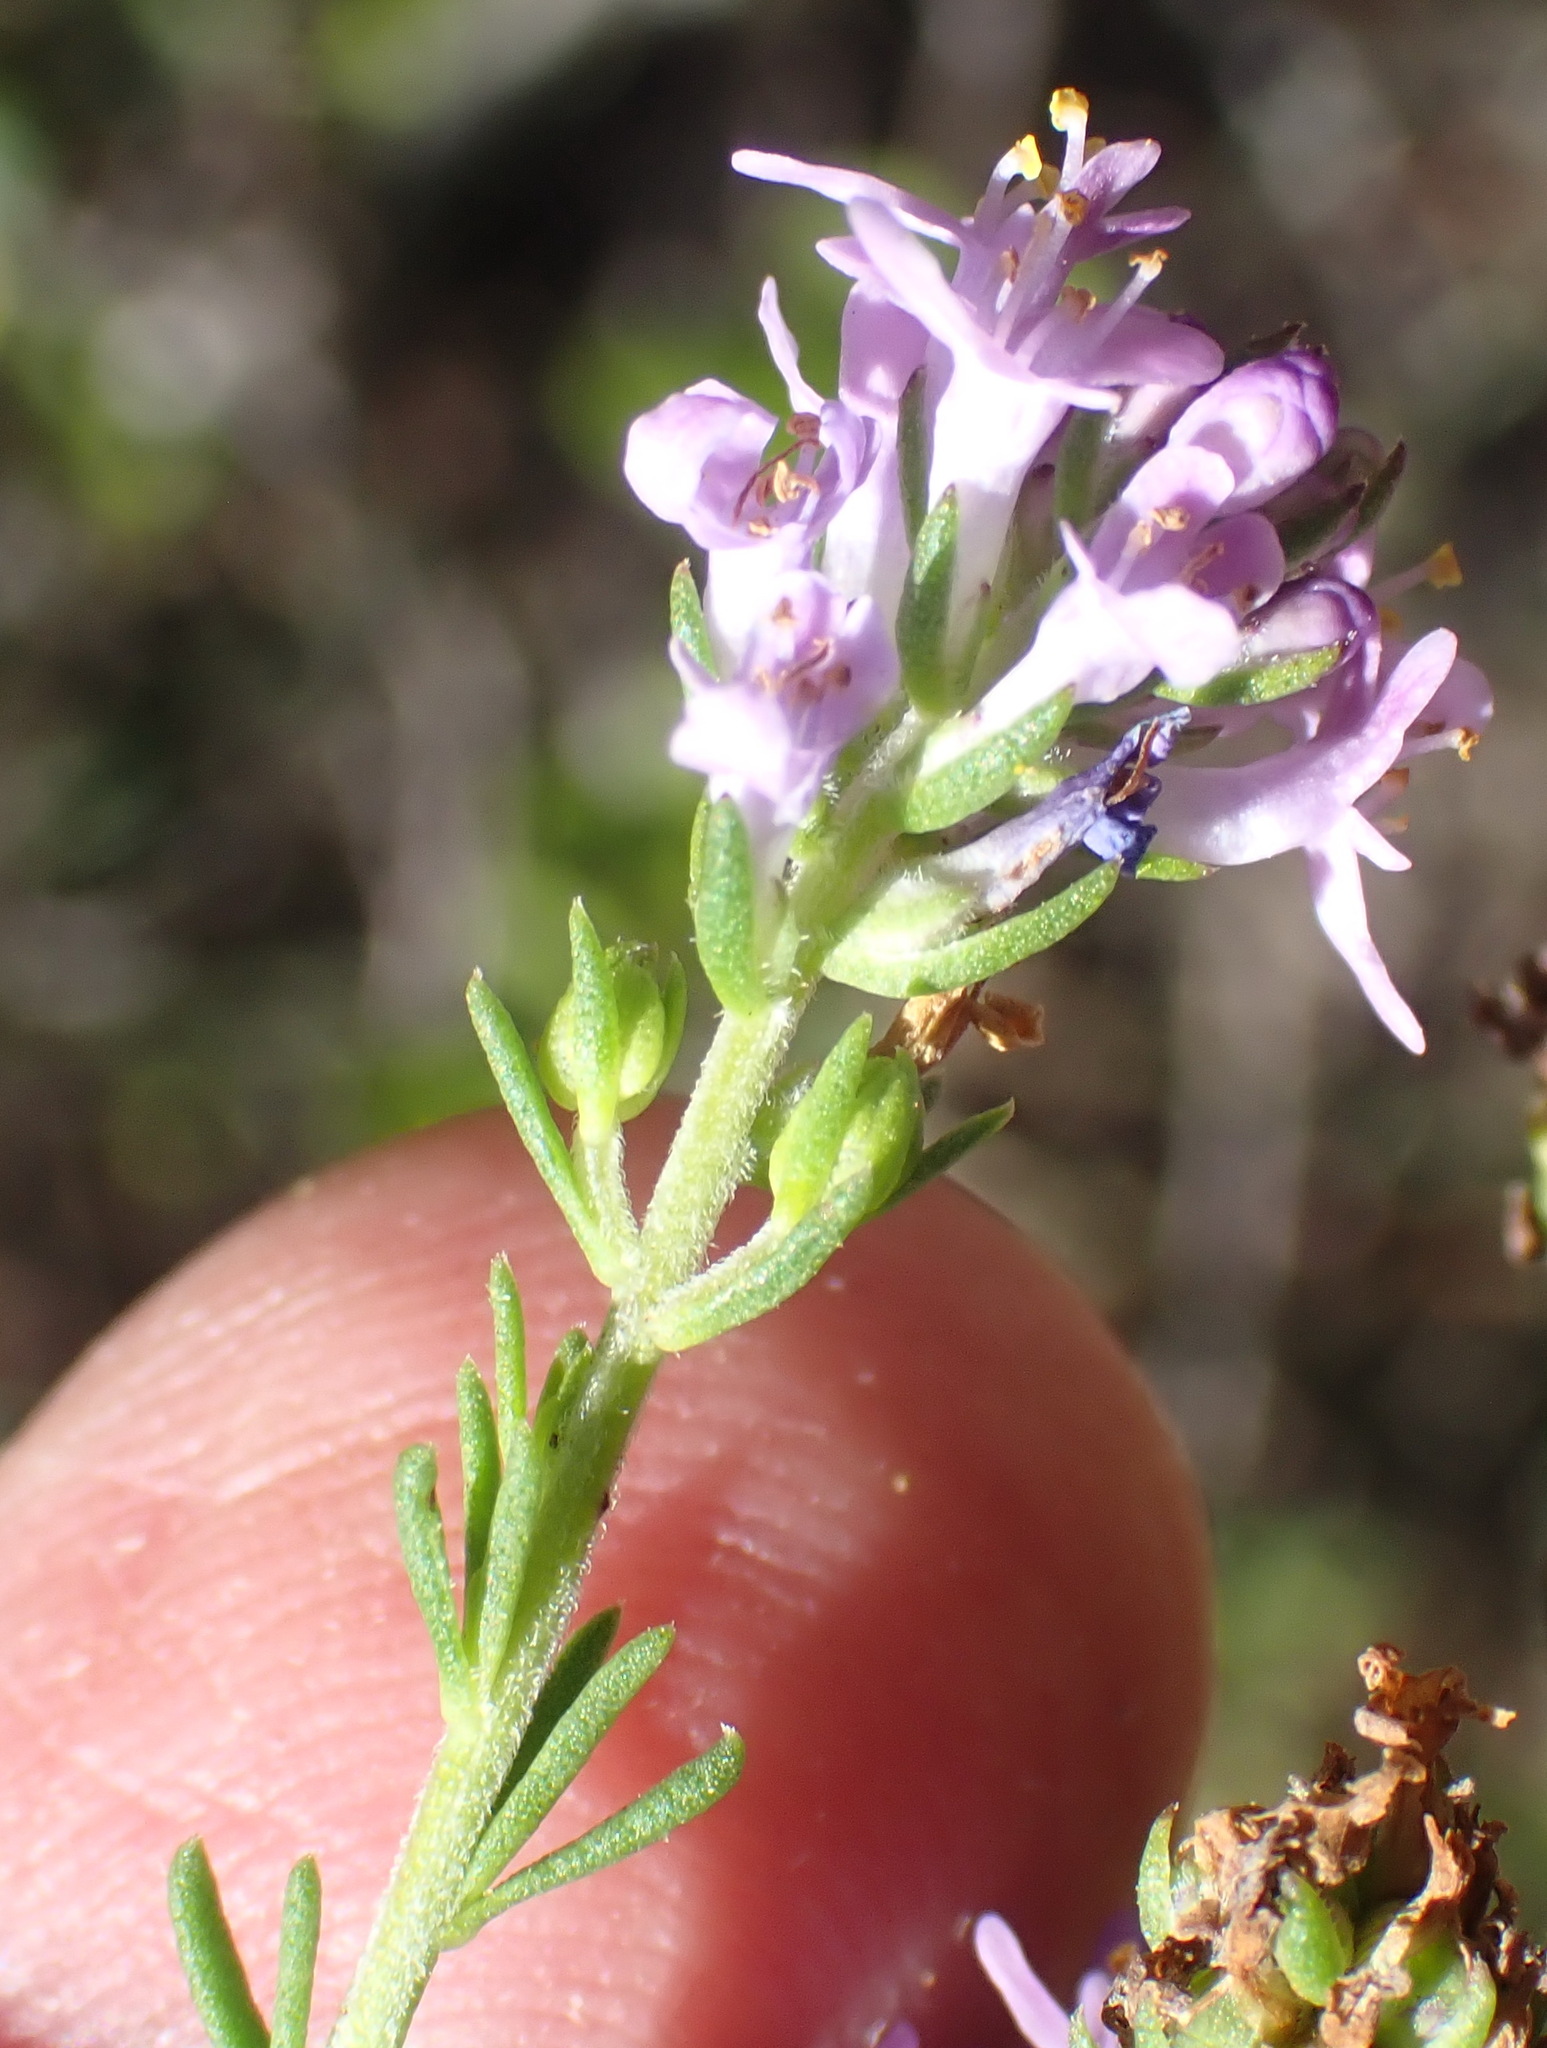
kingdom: Plantae
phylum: Tracheophyta
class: Magnoliopsida
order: Lamiales
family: Scrophulariaceae
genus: Selago
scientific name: Selago villicaulis
